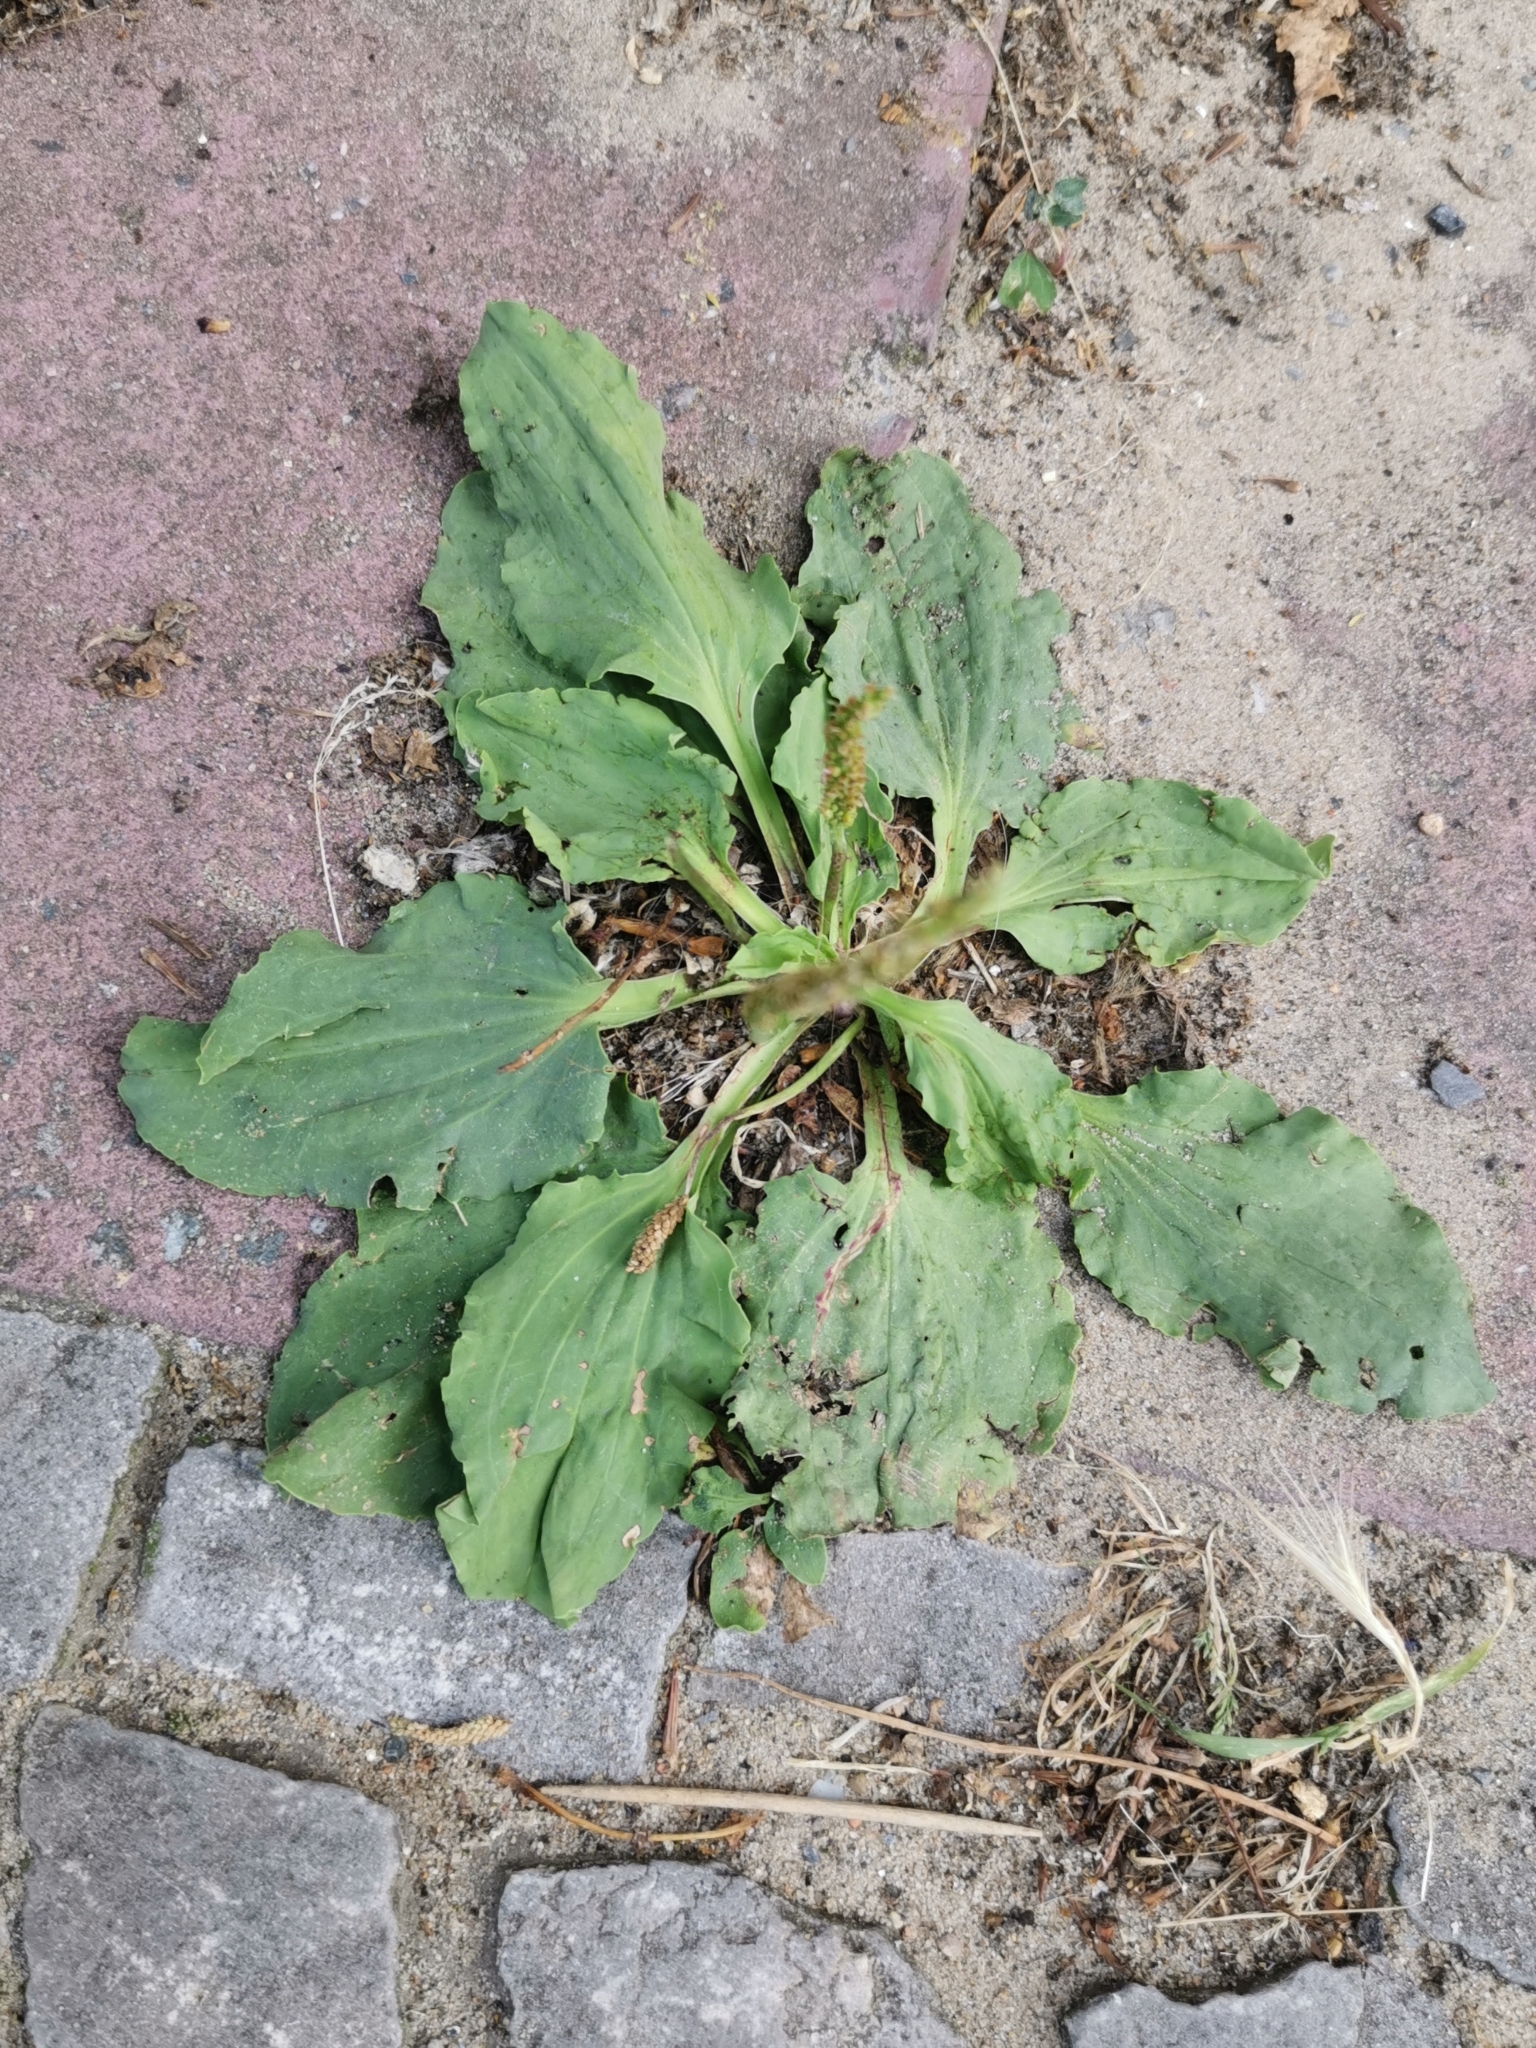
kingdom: Plantae
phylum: Tracheophyta
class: Magnoliopsida
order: Lamiales
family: Plantaginaceae
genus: Plantago
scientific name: Plantago major
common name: Common plantain
